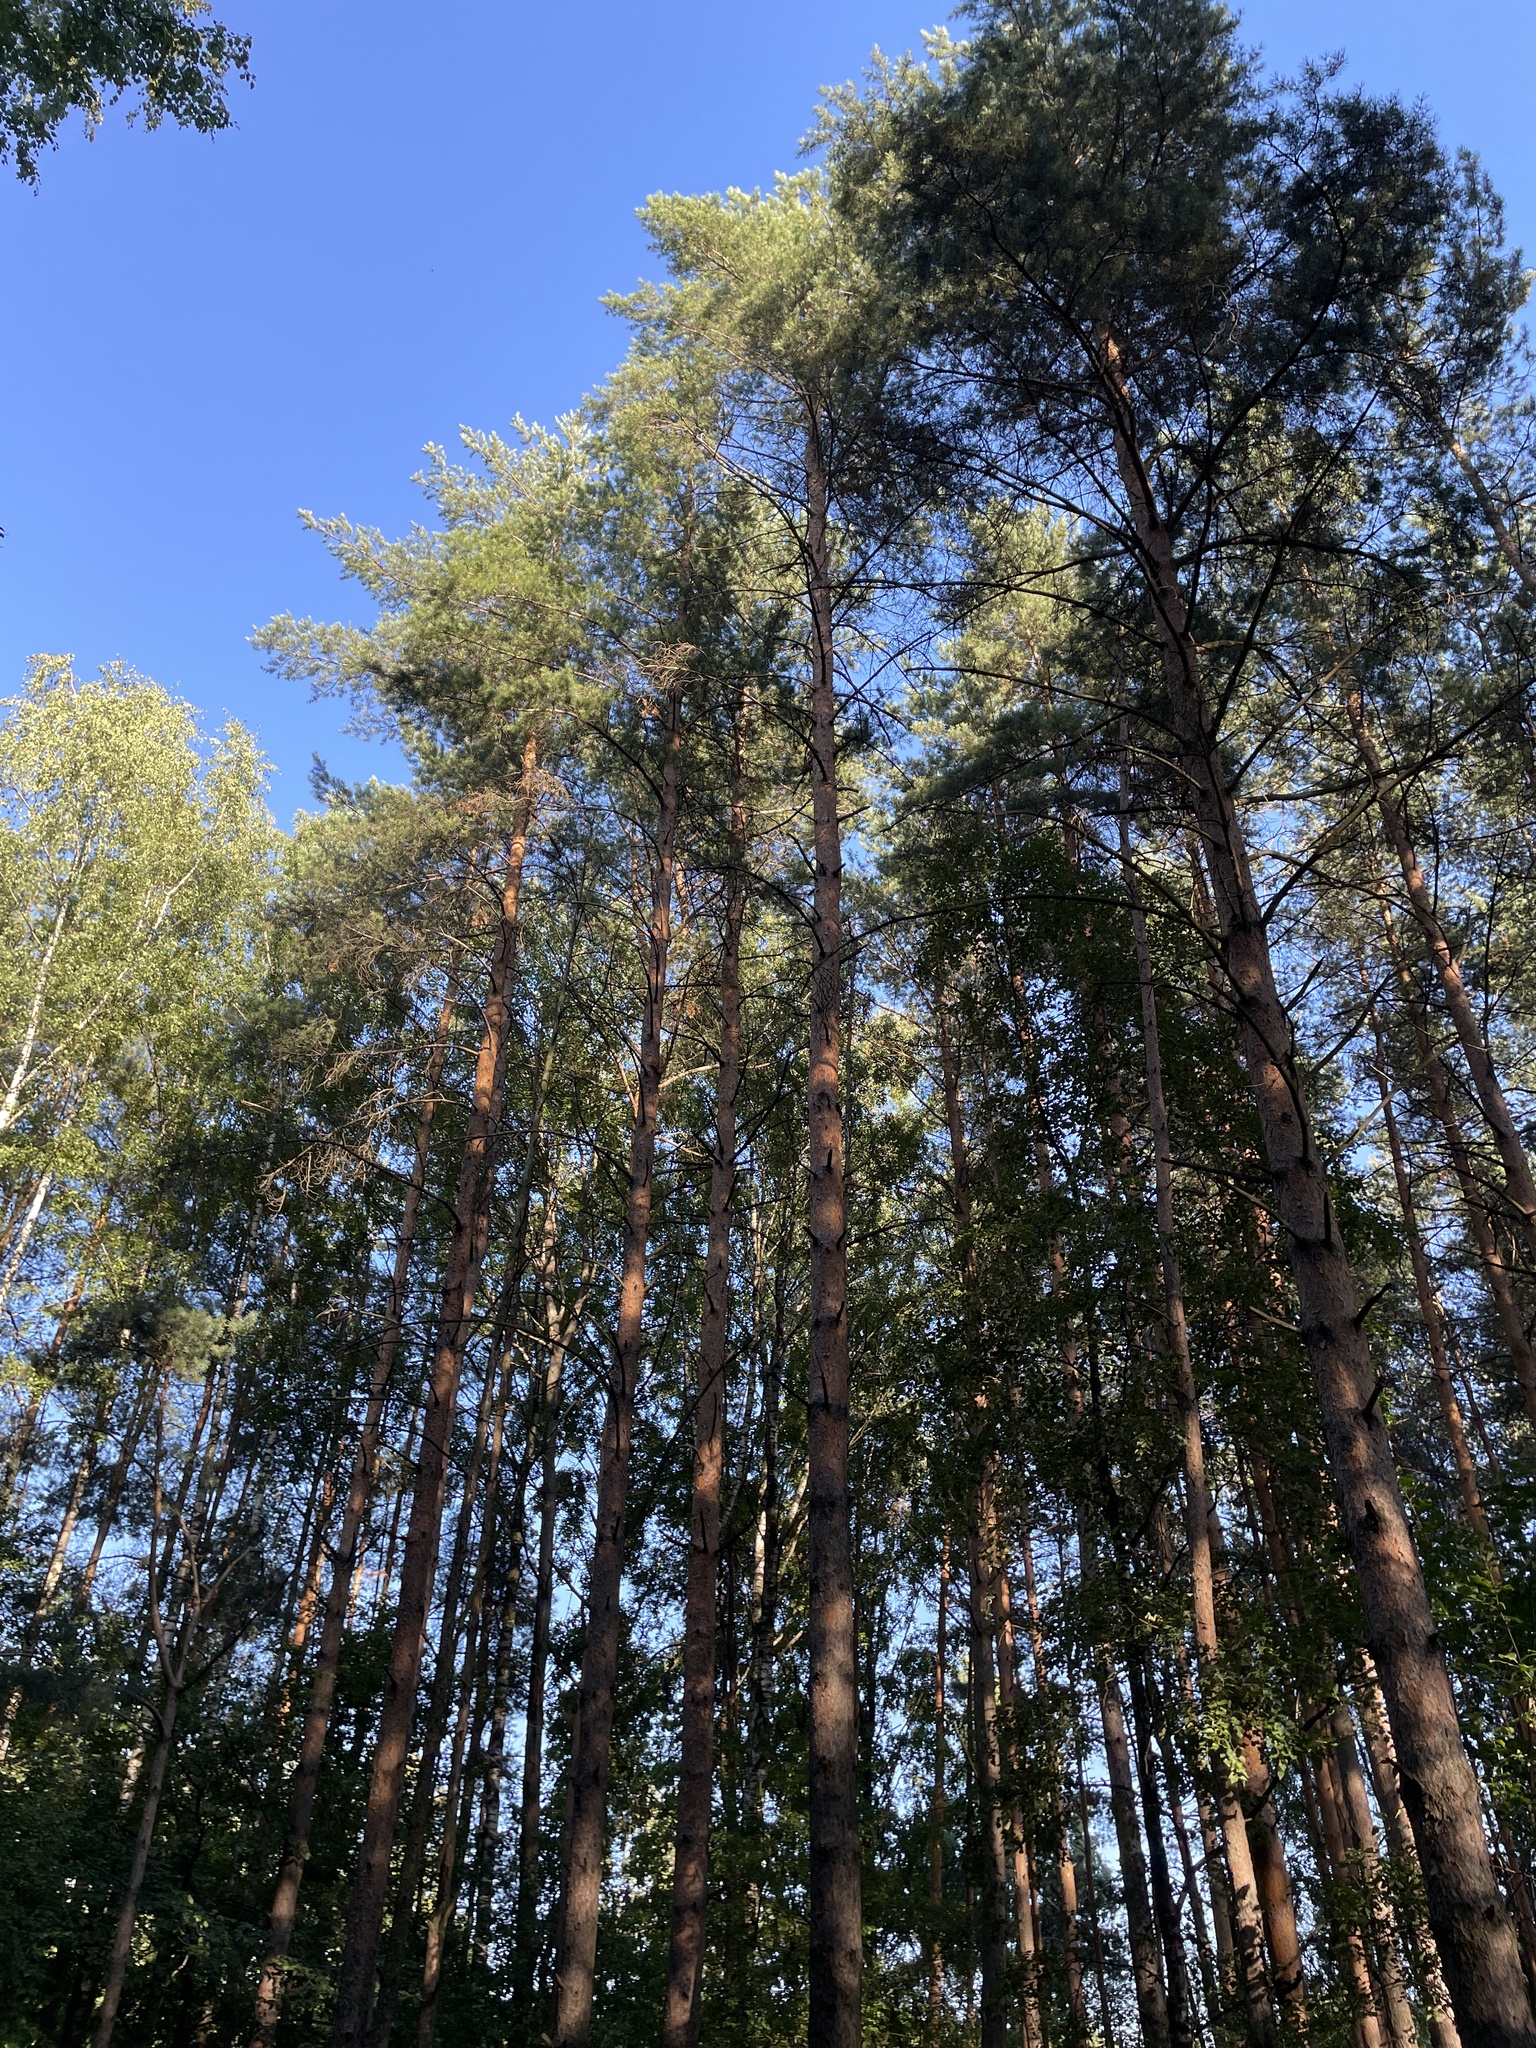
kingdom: Plantae
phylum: Tracheophyta
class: Pinopsida
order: Pinales
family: Pinaceae
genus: Pinus
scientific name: Pinus sylvestris
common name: Scots pine
